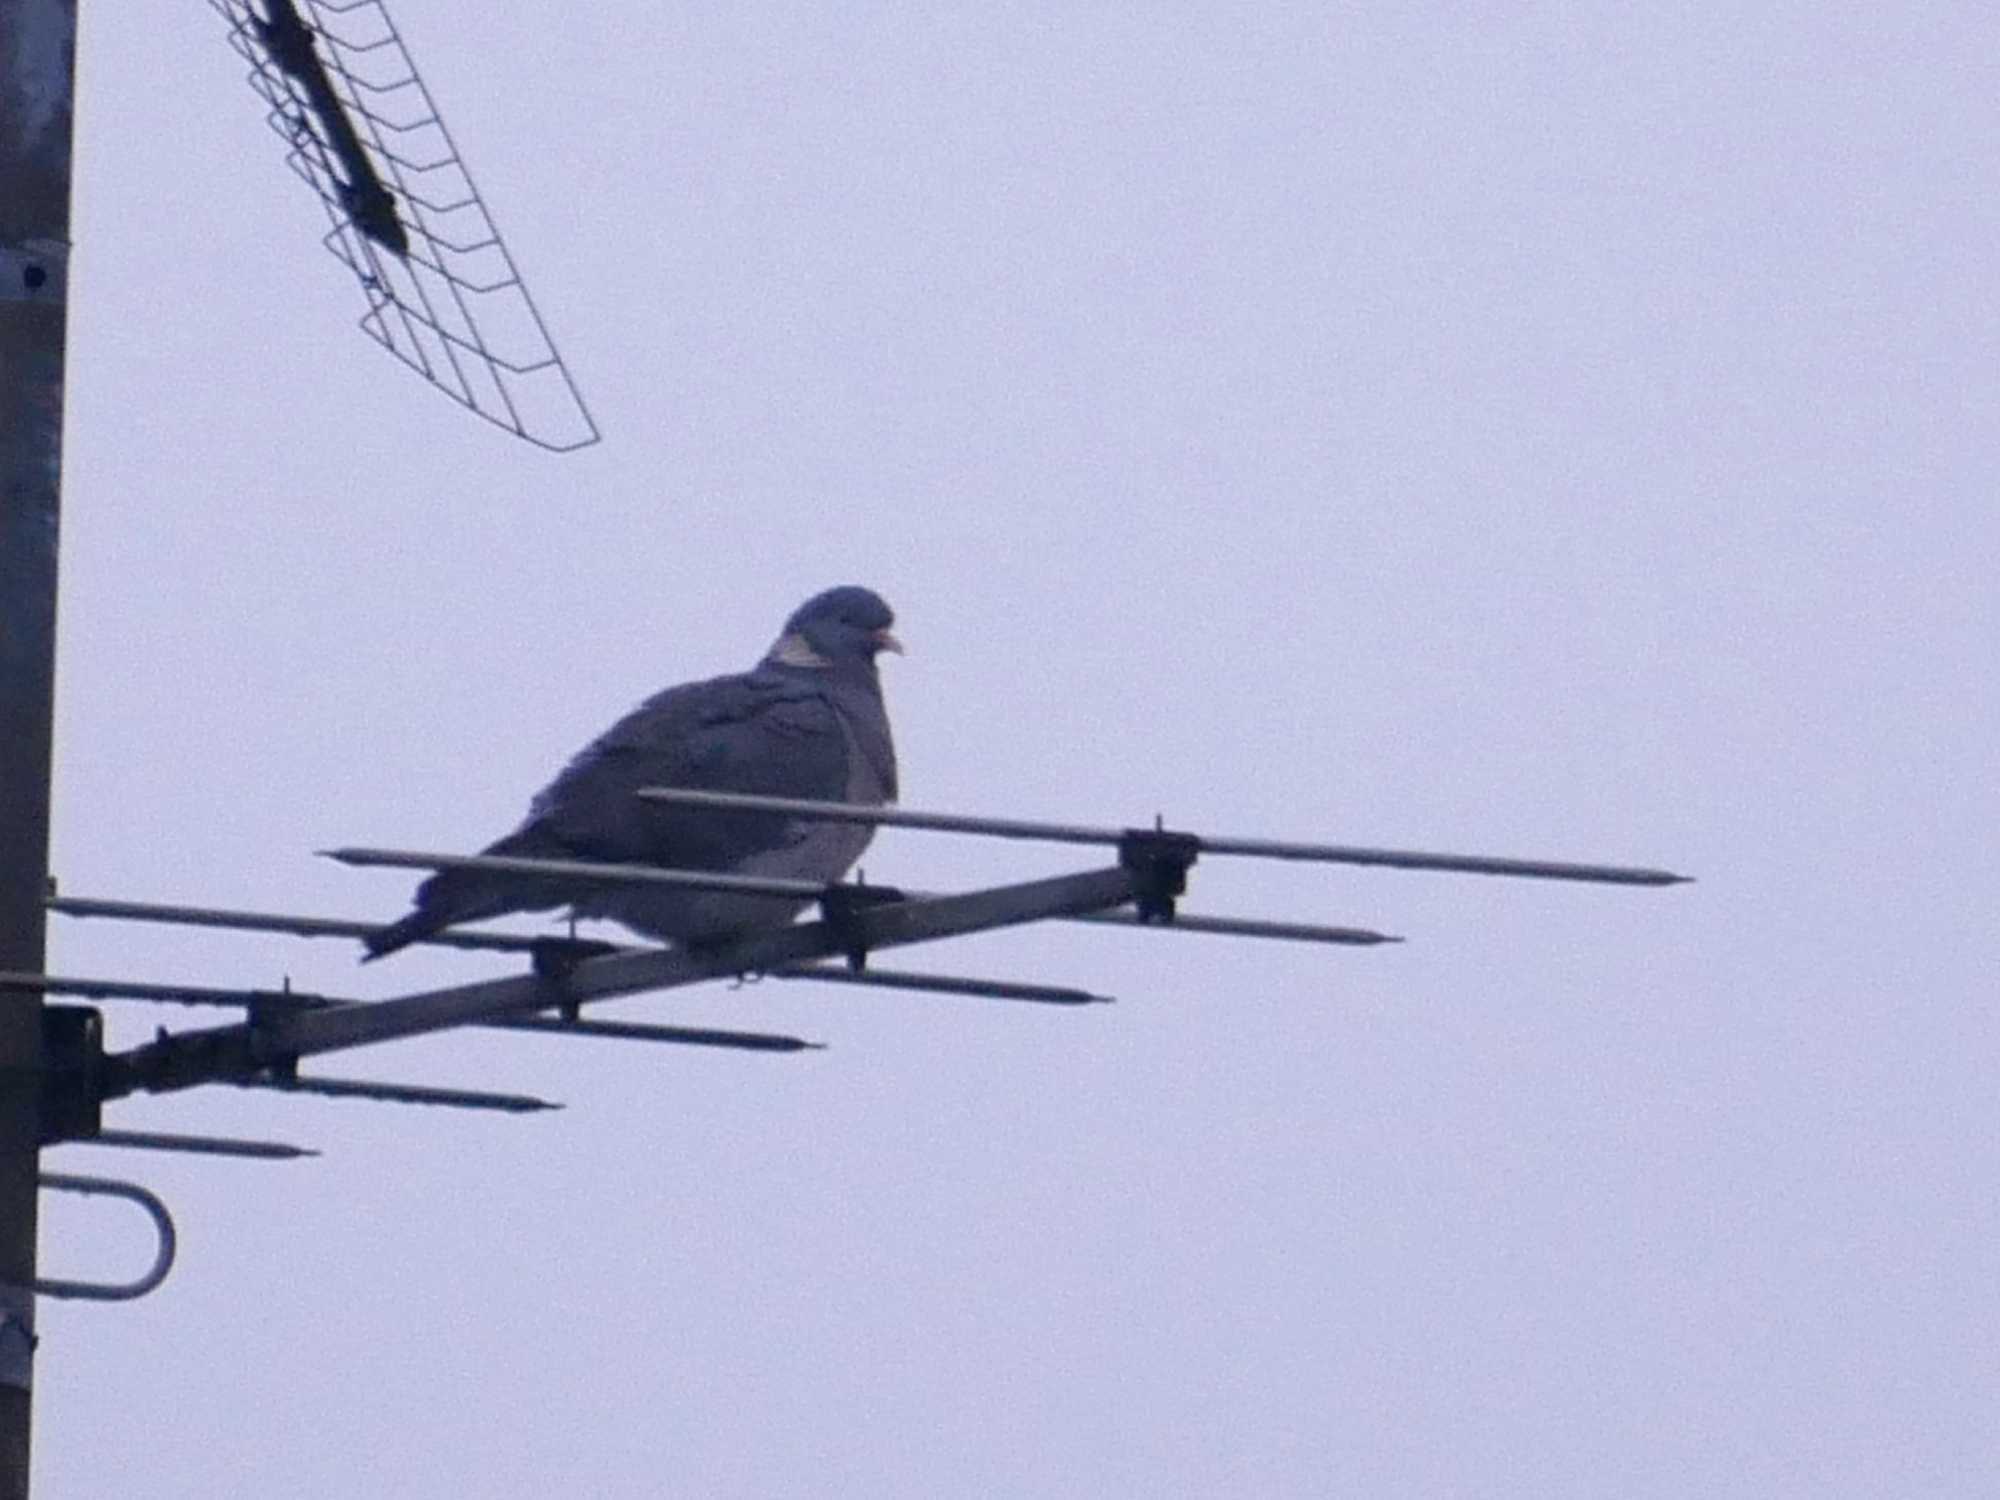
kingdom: Animalia
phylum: Chordata
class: Aves
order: Columbiformes
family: Columbidae
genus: Columba
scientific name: Columba palumbus
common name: Common wood pigeon
